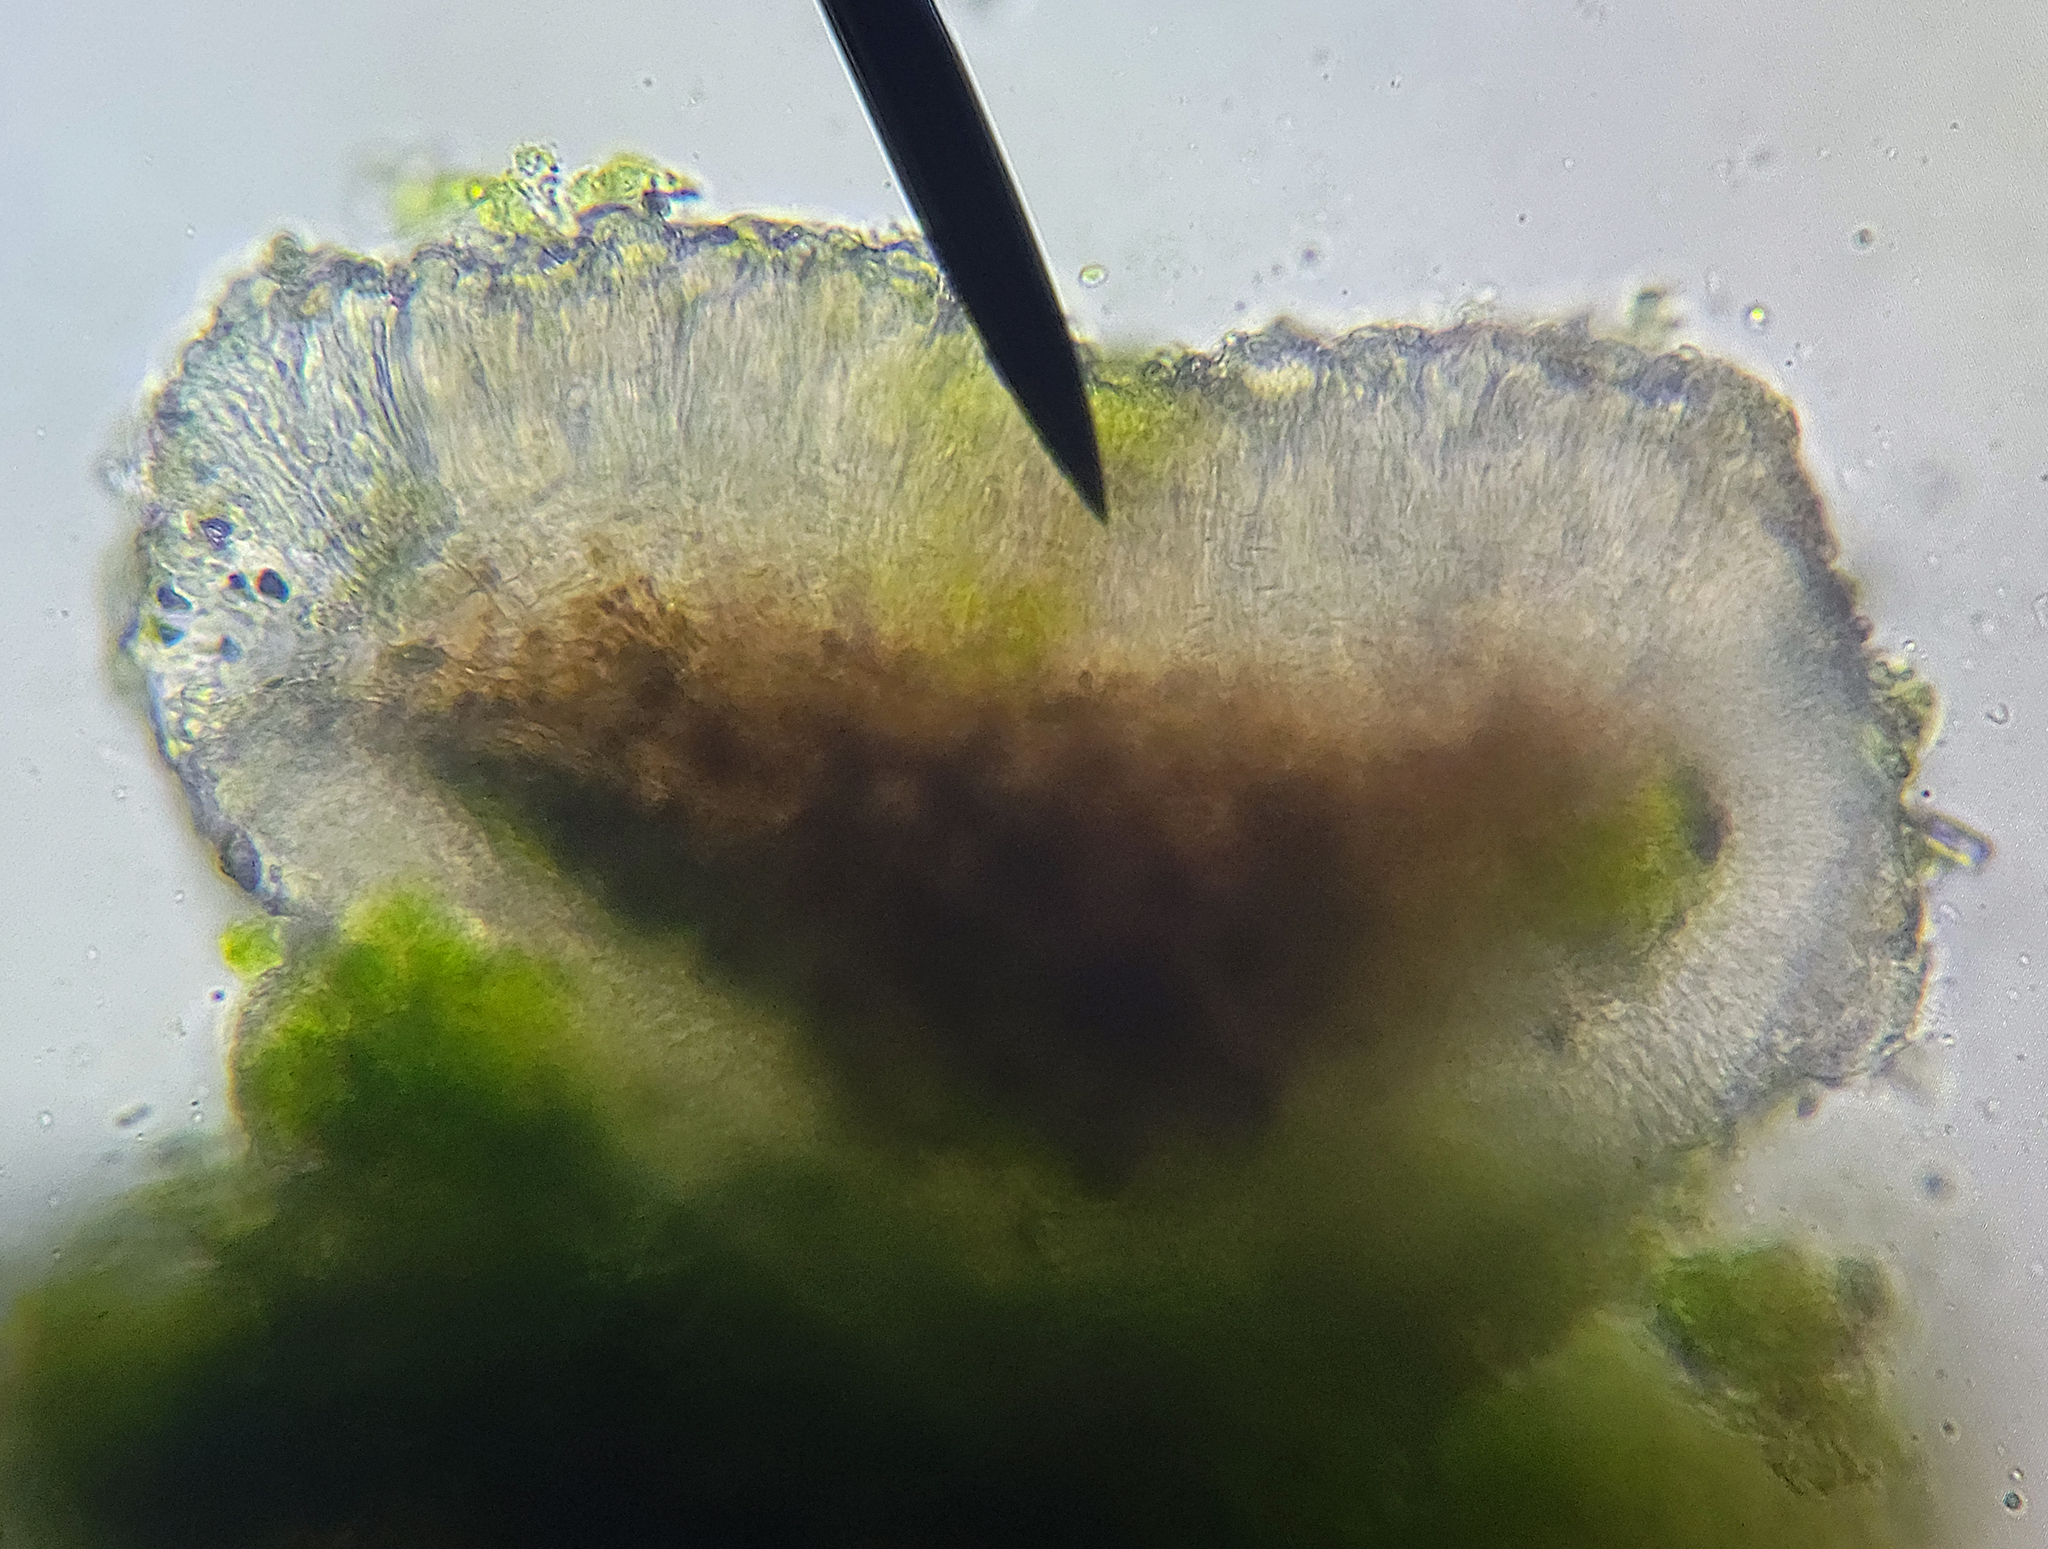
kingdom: Fungi
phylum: Ascomycota
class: Lecanoromycetes
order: Lecanorales
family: Ramalinaceae
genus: Bacidina
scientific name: Bacidina inundata
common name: Wet dot lichen
